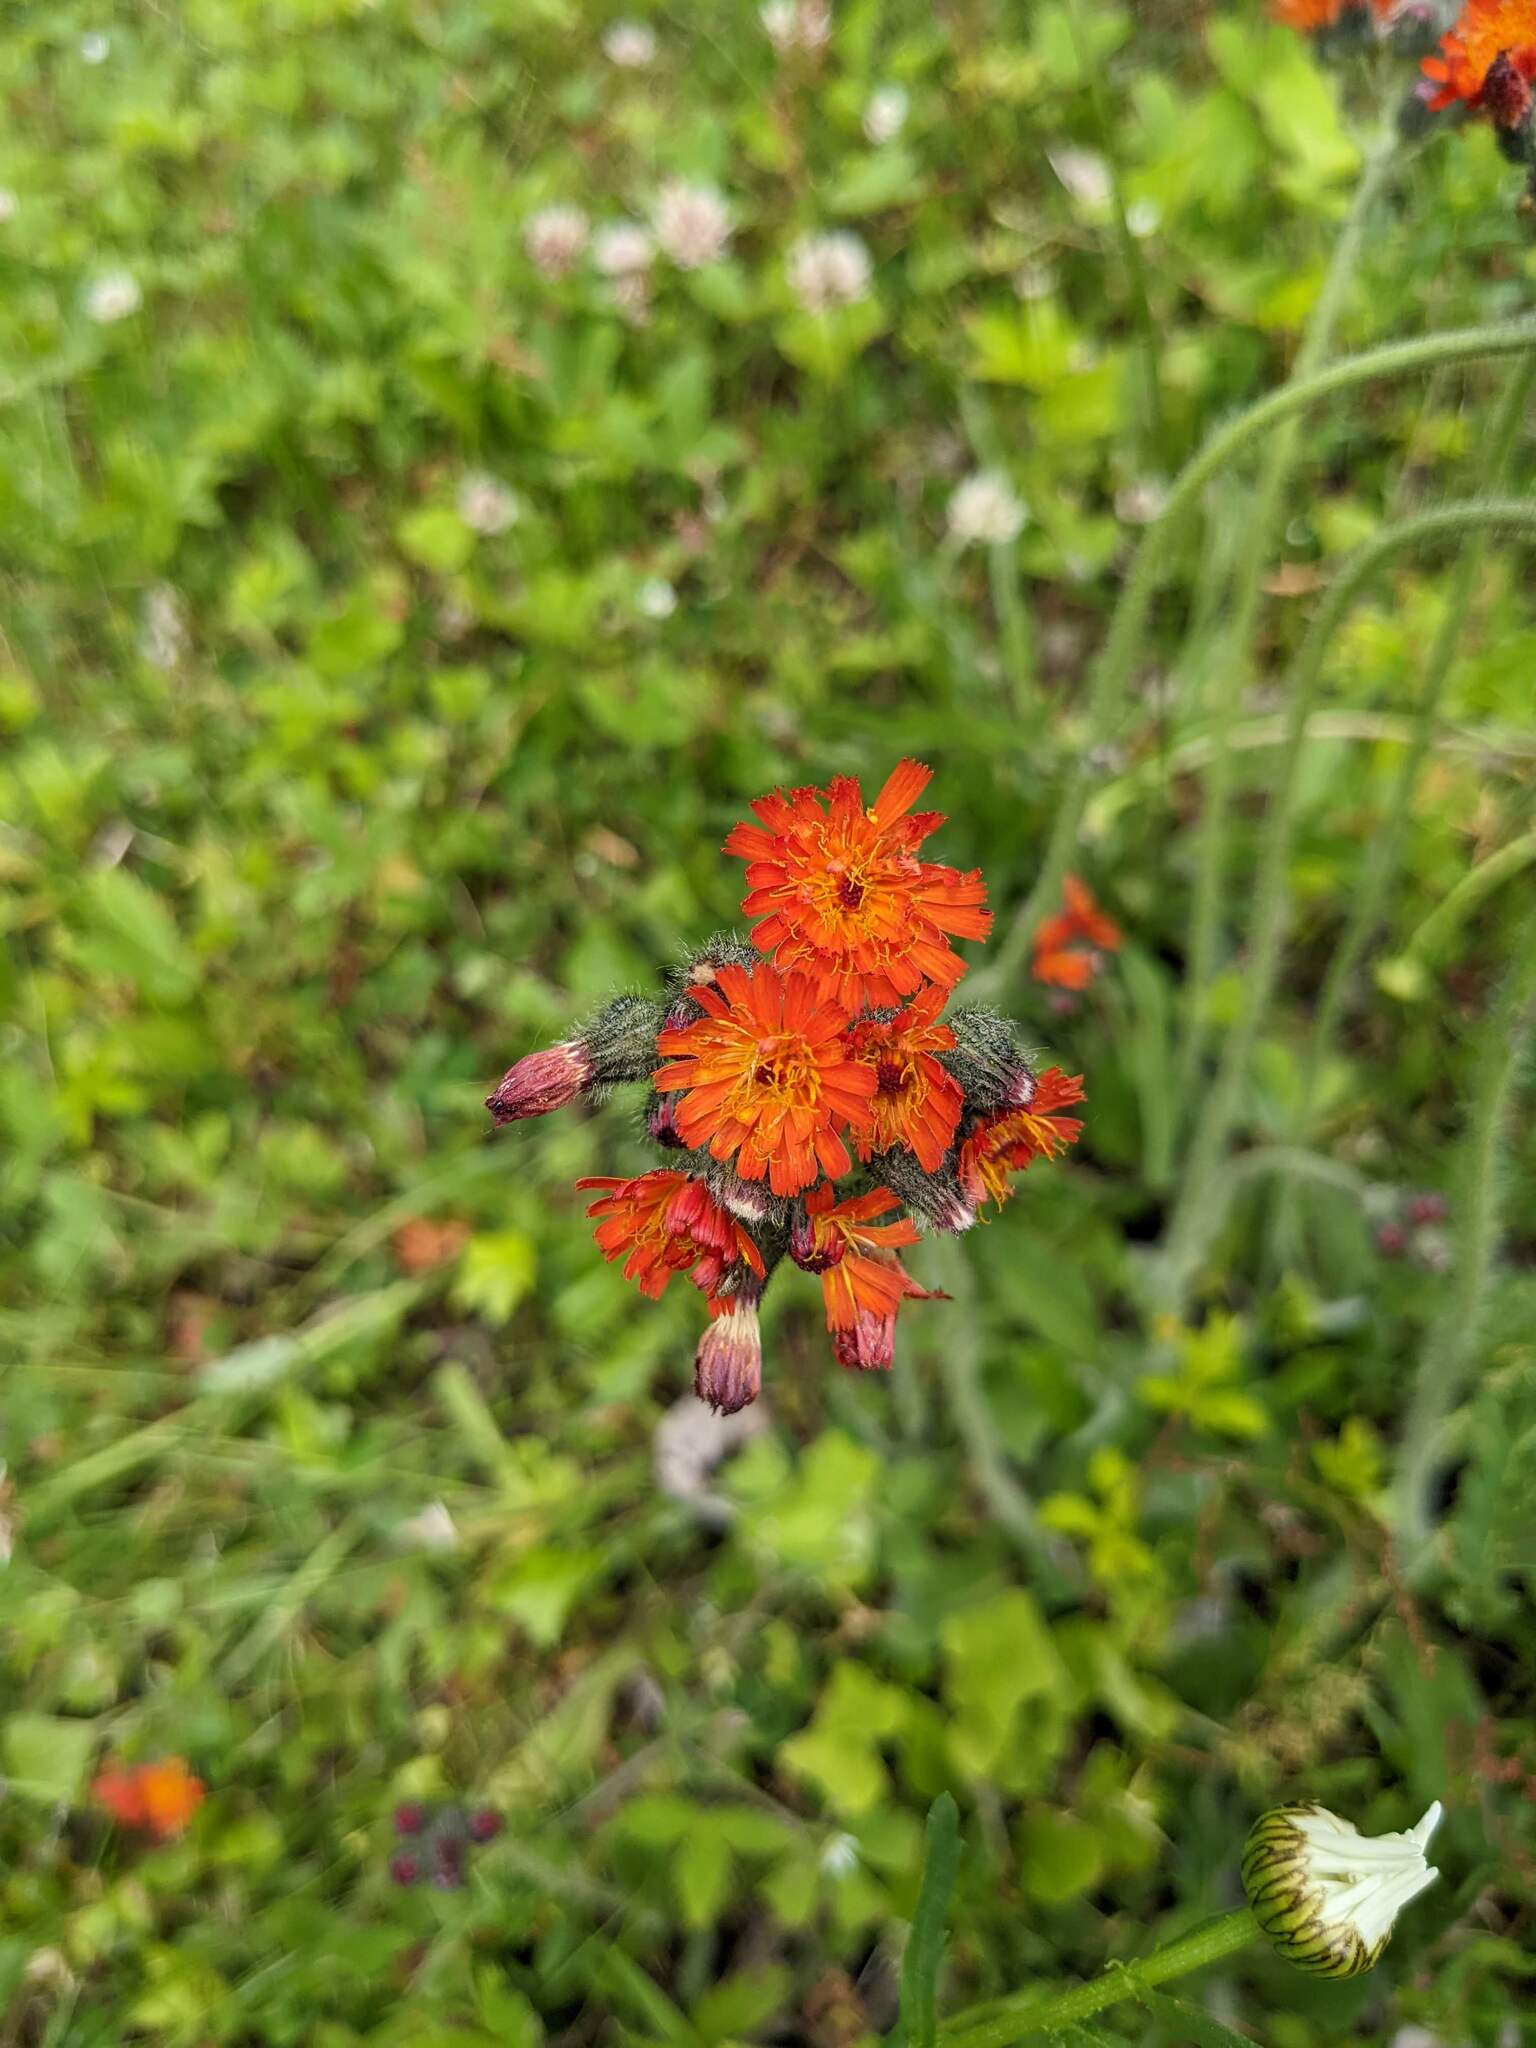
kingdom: Plantae
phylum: Tracheophyta
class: Magnoliopsida
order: Asterales
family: Asteraceae
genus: Pilosella
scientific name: Pilosella aurantiaca
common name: Fox-and-cubs
